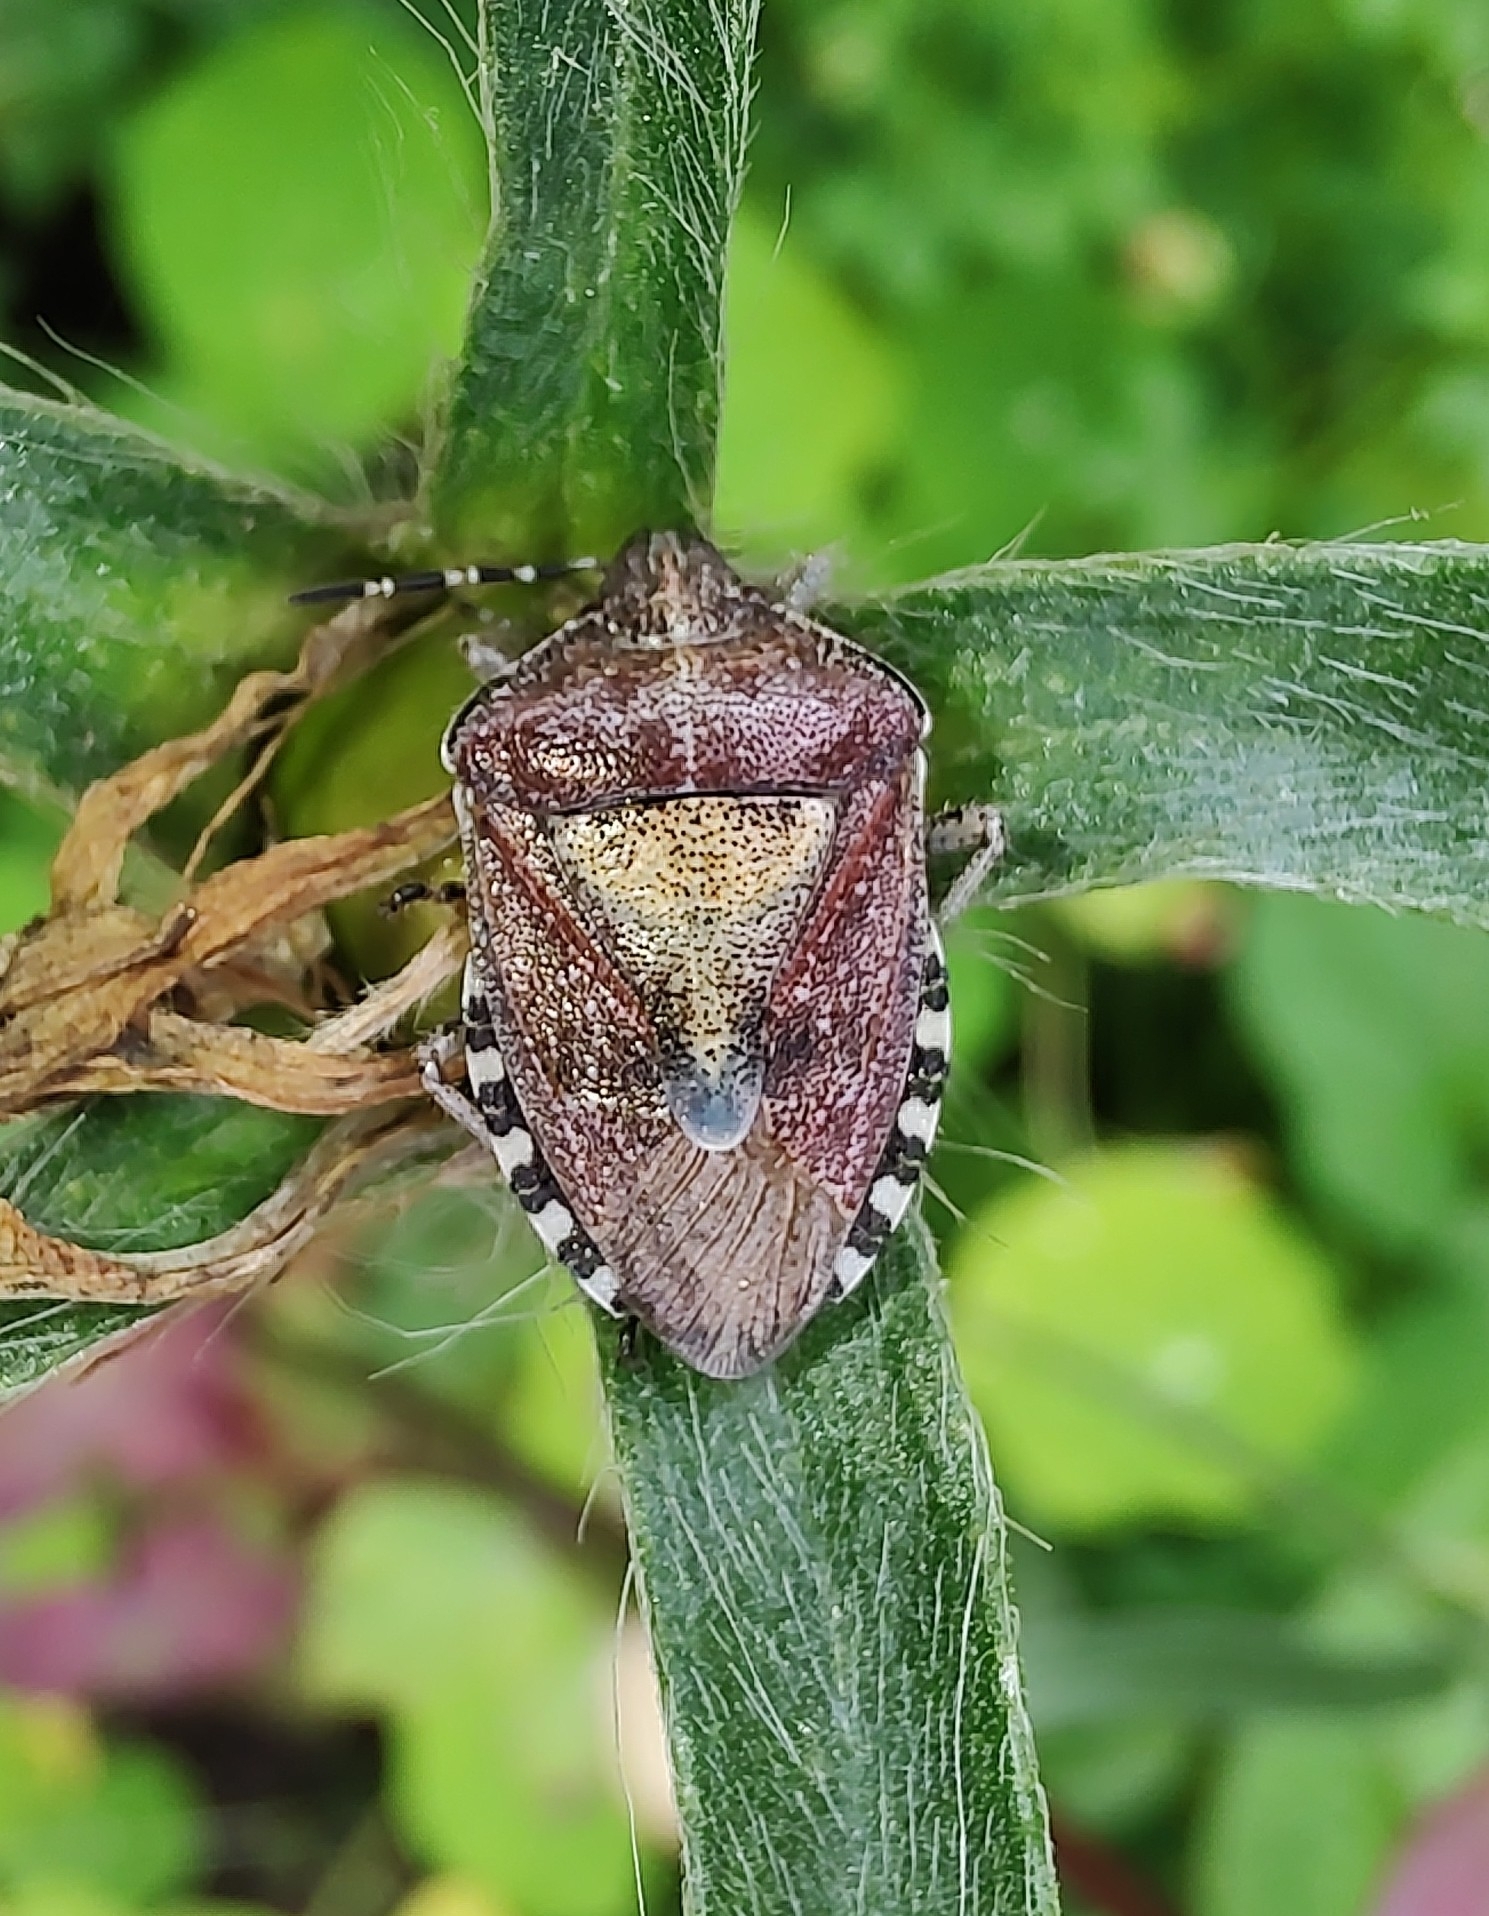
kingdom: Animalia
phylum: Arthropoda
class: Insecta
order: Hemiptera
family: Pentatomidae
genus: Dolycoris
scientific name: Dolycoris baccarum
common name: Sloe bug
